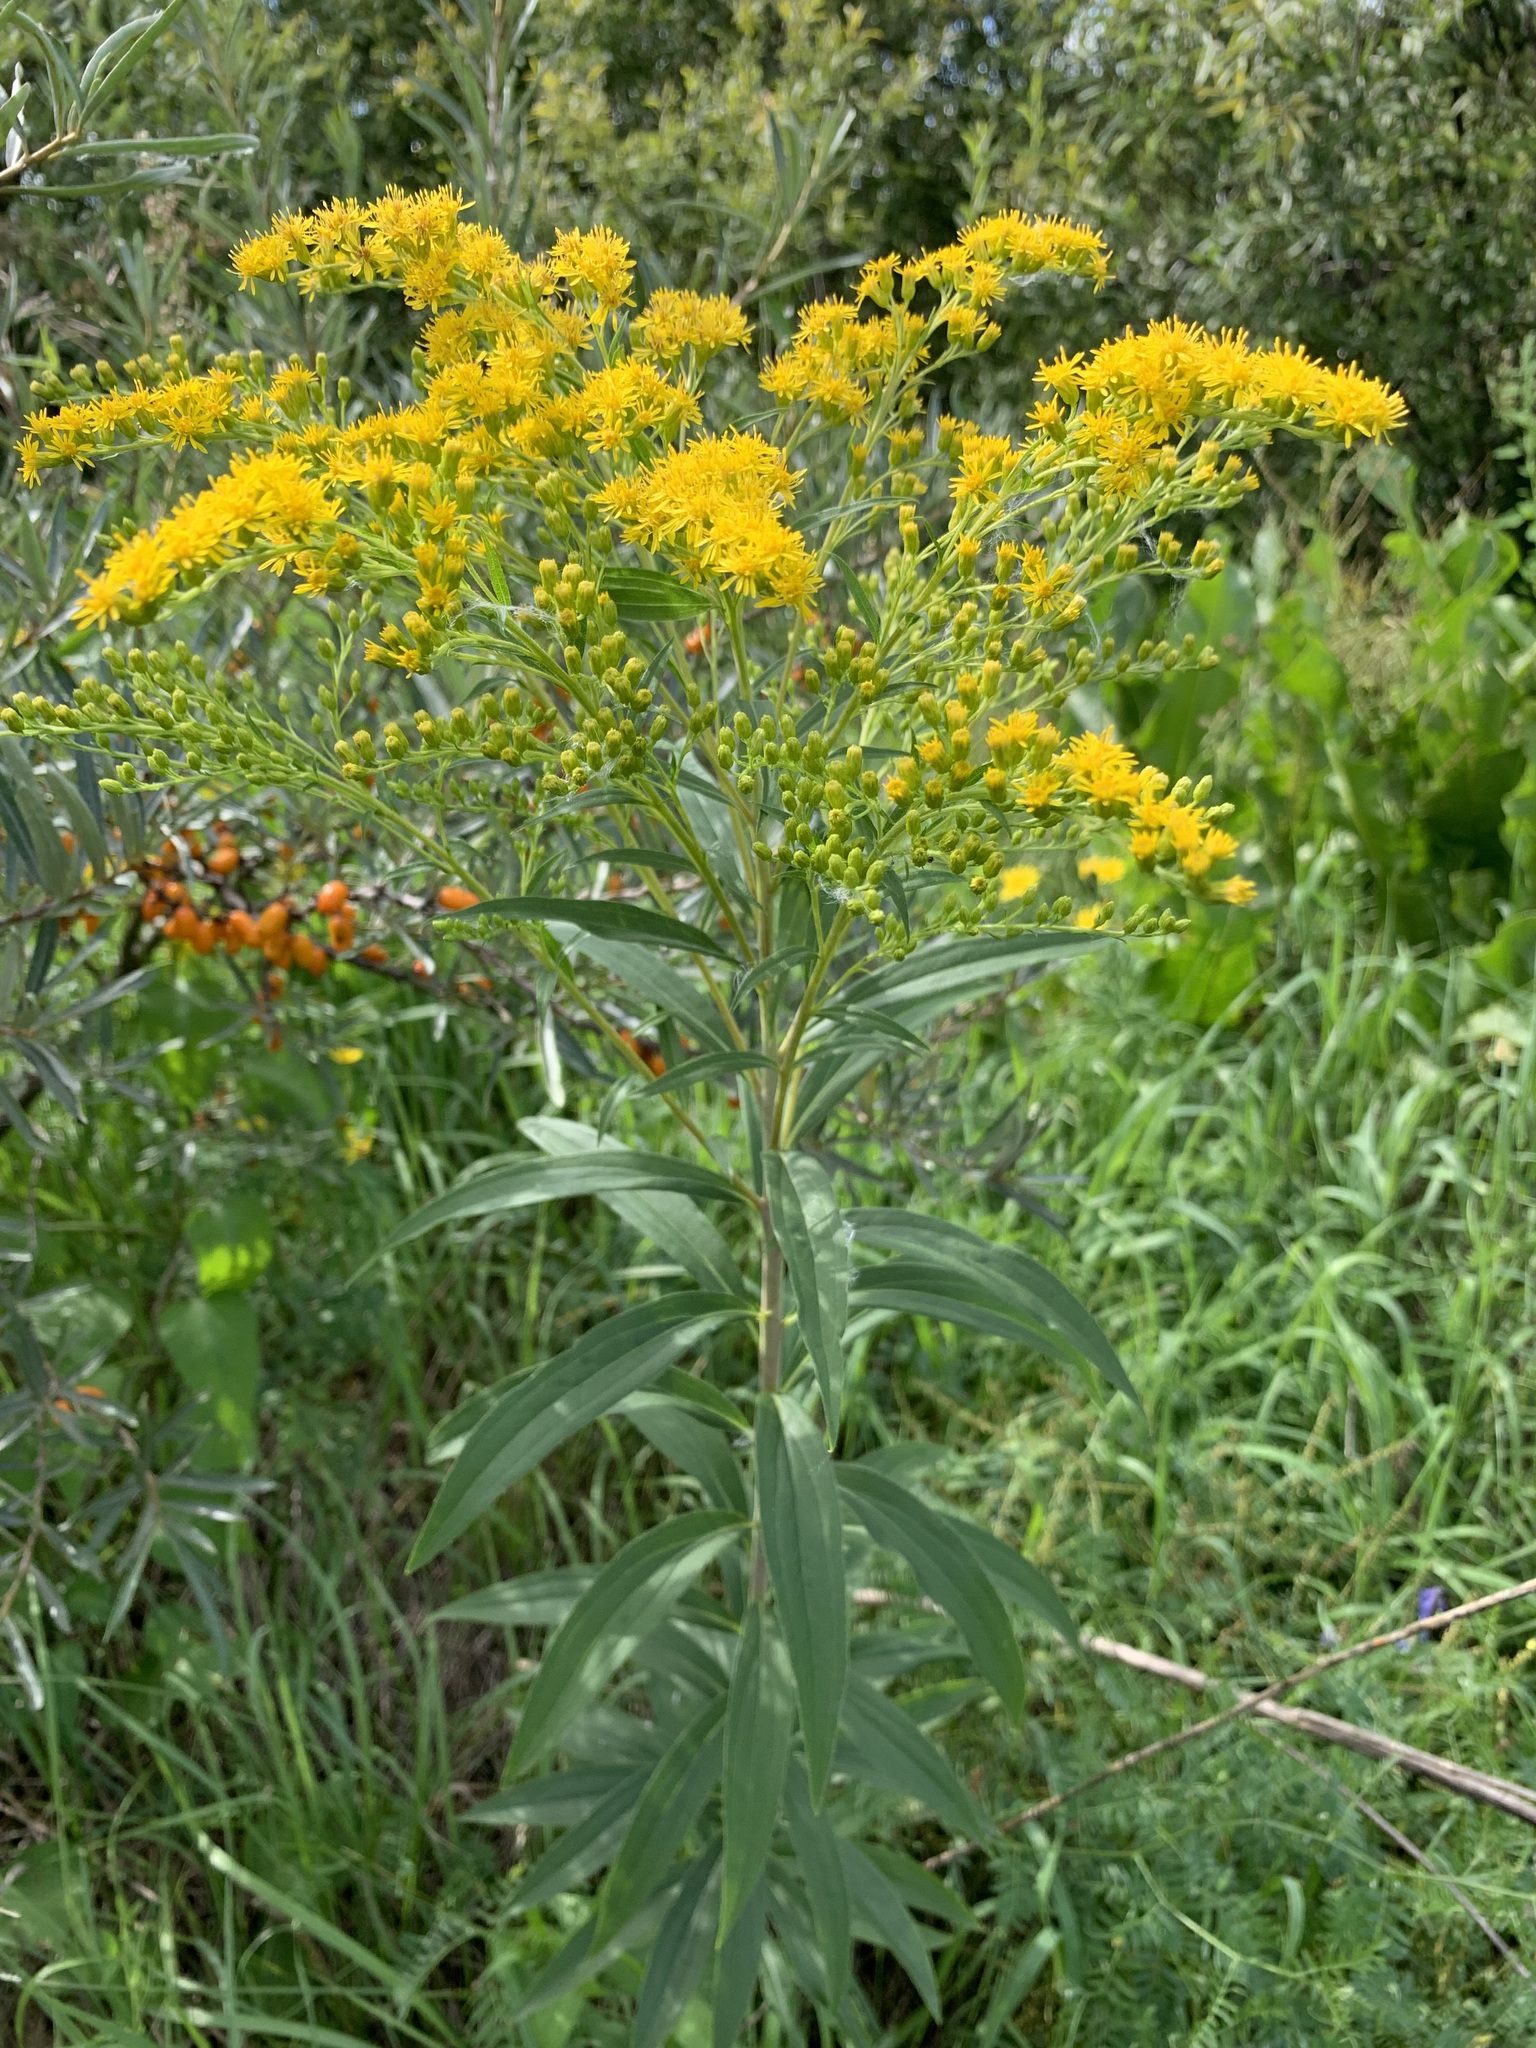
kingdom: Plantae
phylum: Tracheophyta
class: Magnoliopsida
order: Asterales
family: Asteraceae
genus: Solidago
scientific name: Solidago canadensis
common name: Canada goldenrod
